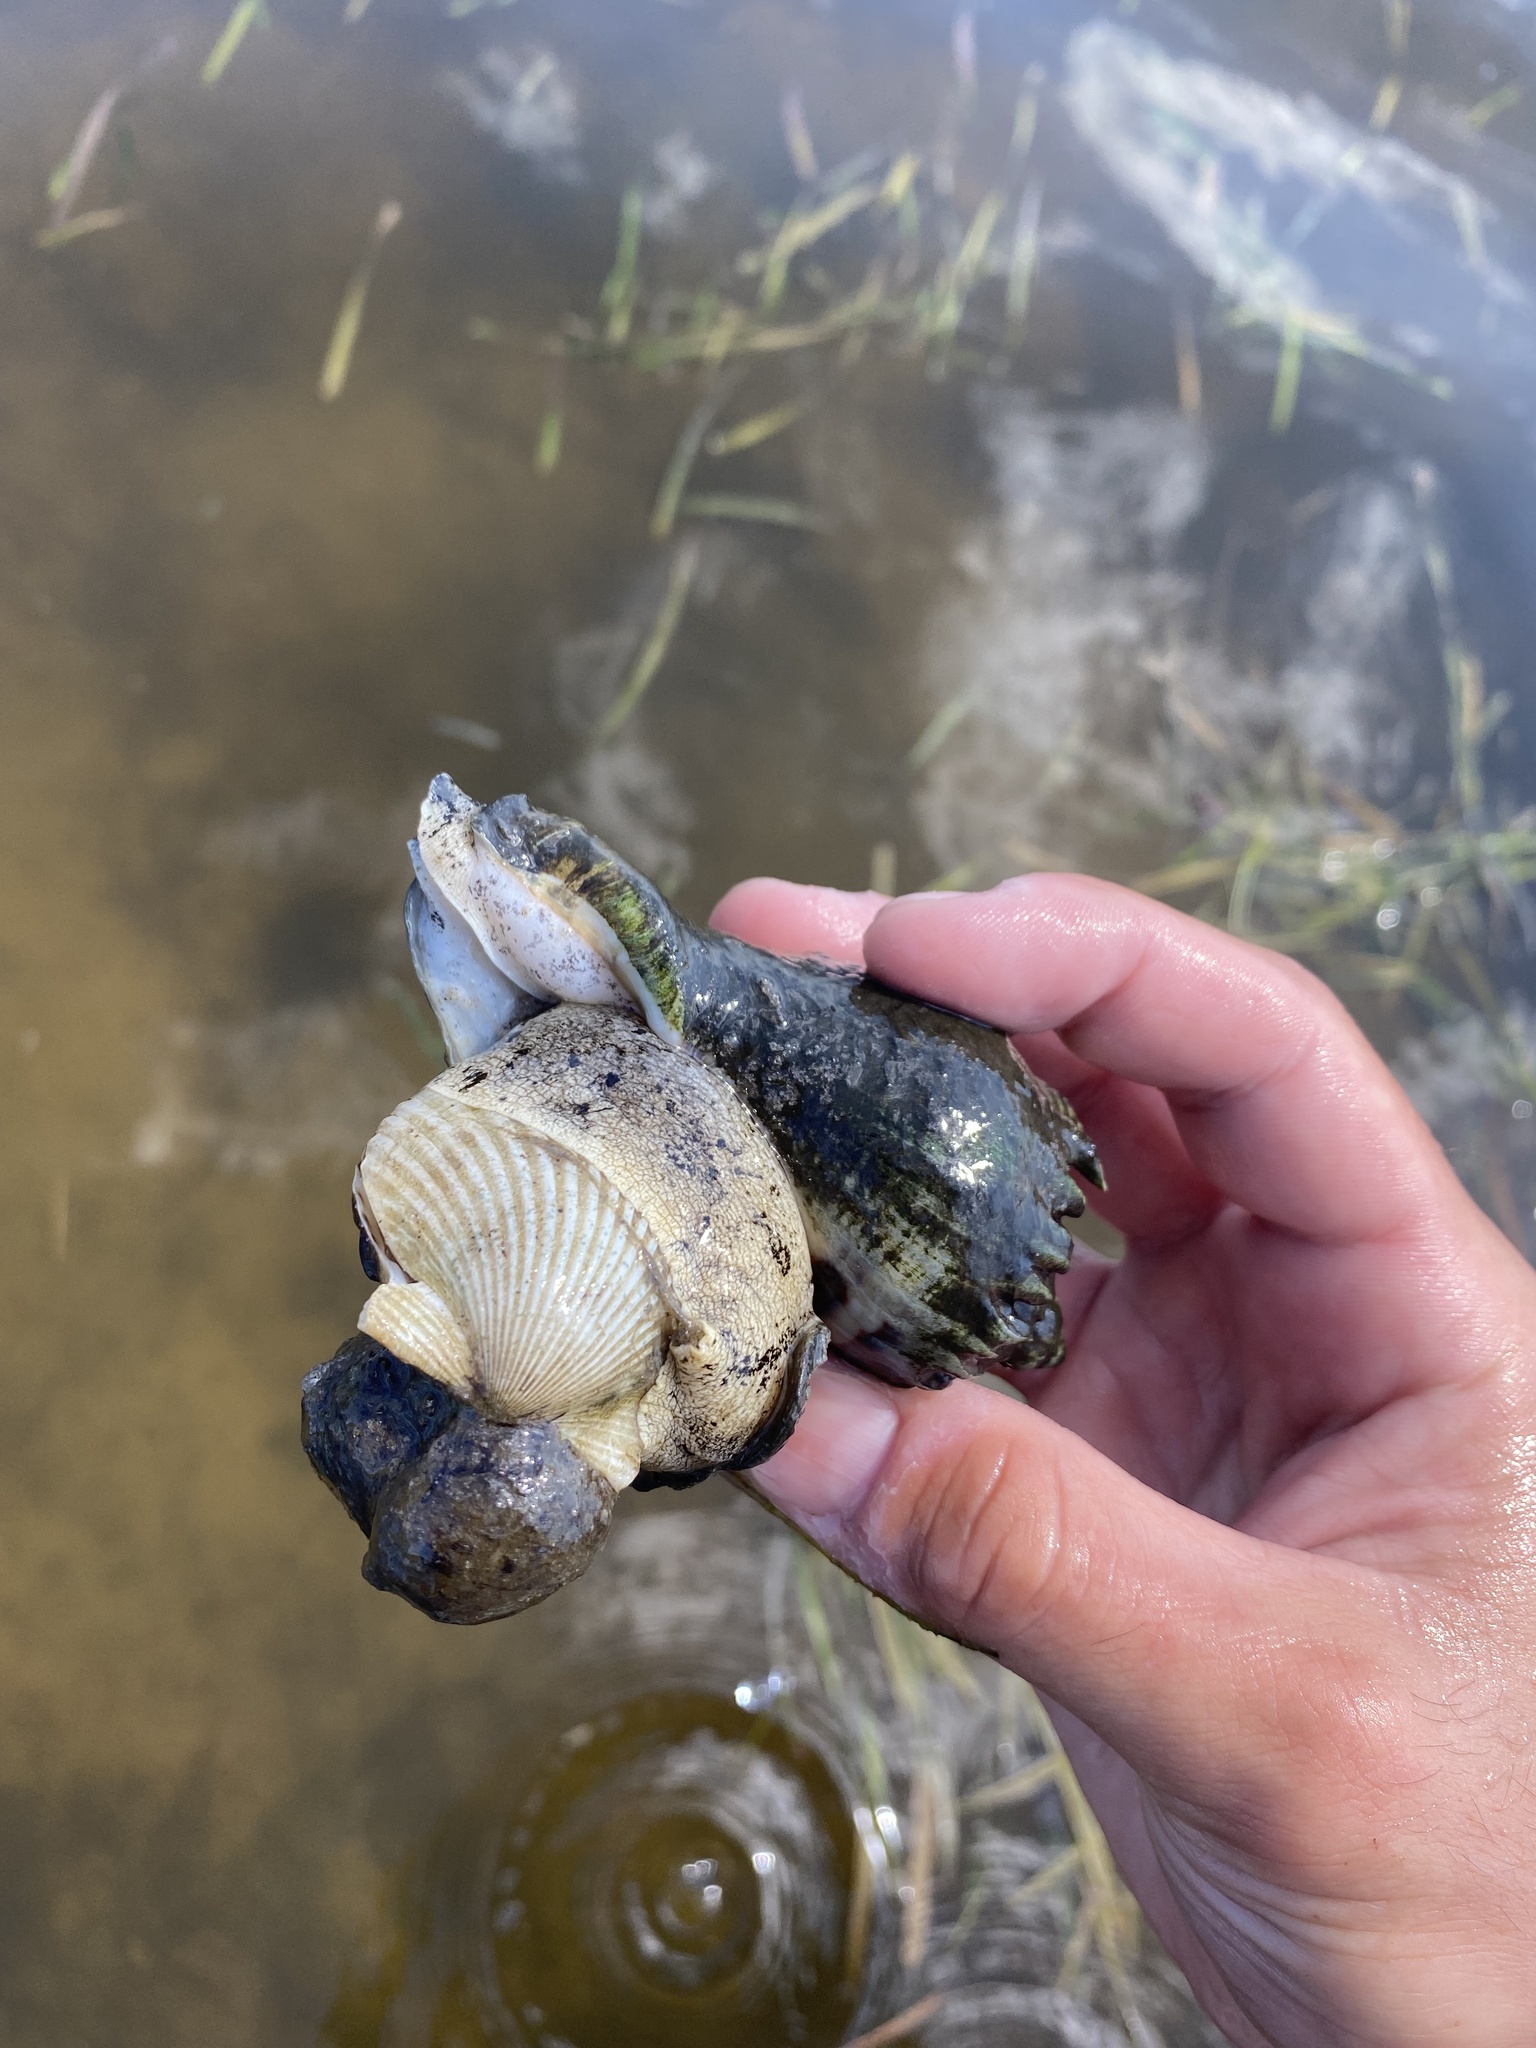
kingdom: Animalia
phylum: Mollusca
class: Gastropoda
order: Neogastropoda
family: Melongenidae
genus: Melongena
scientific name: Melongena corona
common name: American crown conch
